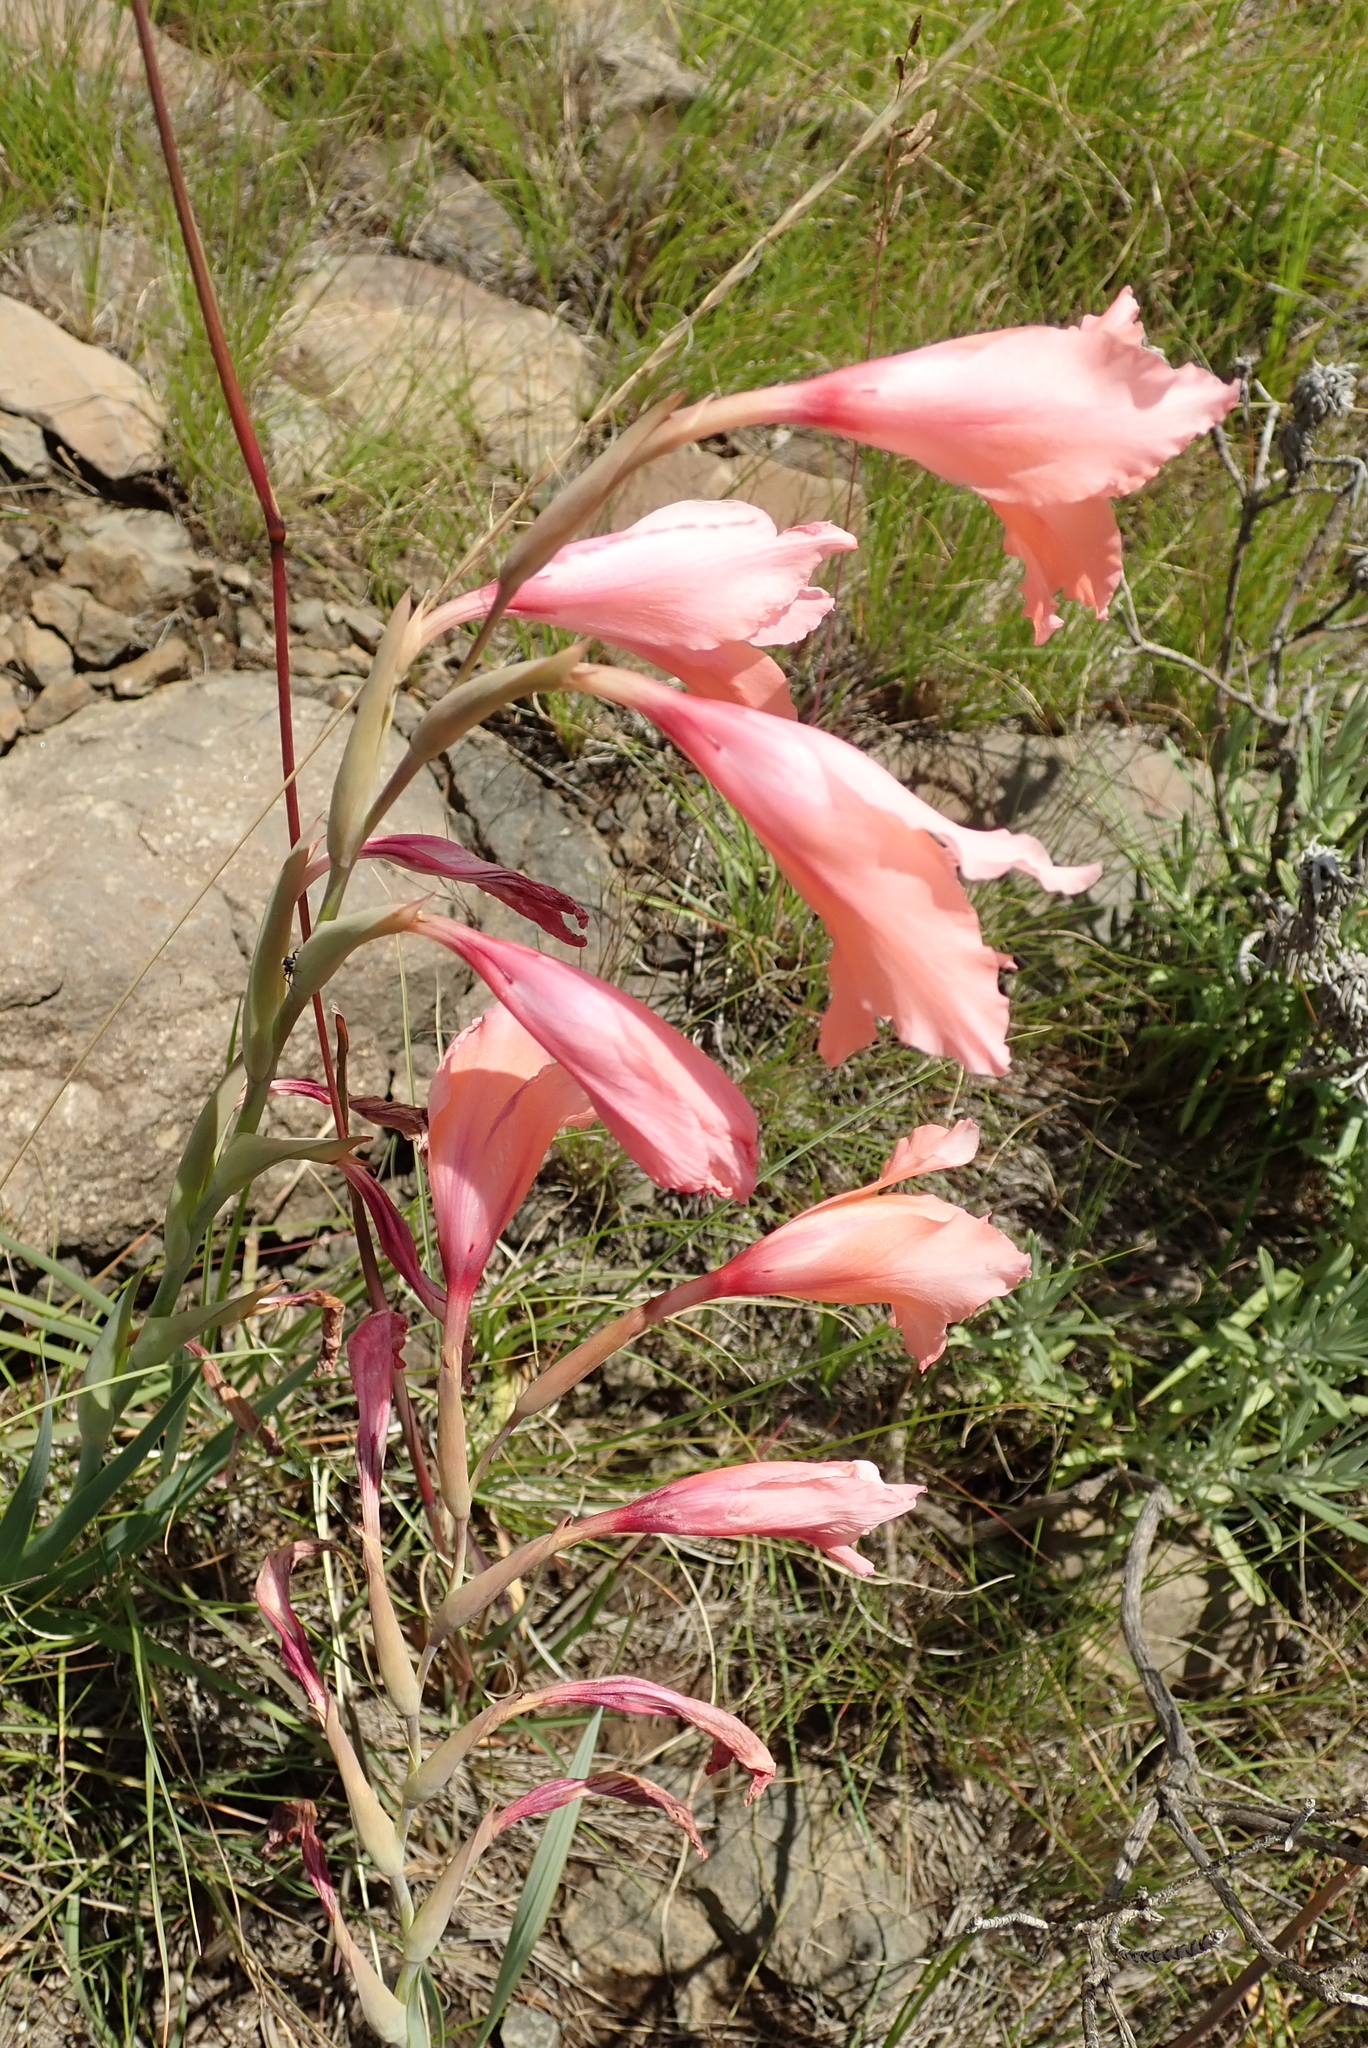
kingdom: Plantae
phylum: Tracheophyta
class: Liliopsida
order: Asparagales
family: Iridaceae
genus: Gladiolus
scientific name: Gladiolus oppositiflorus
